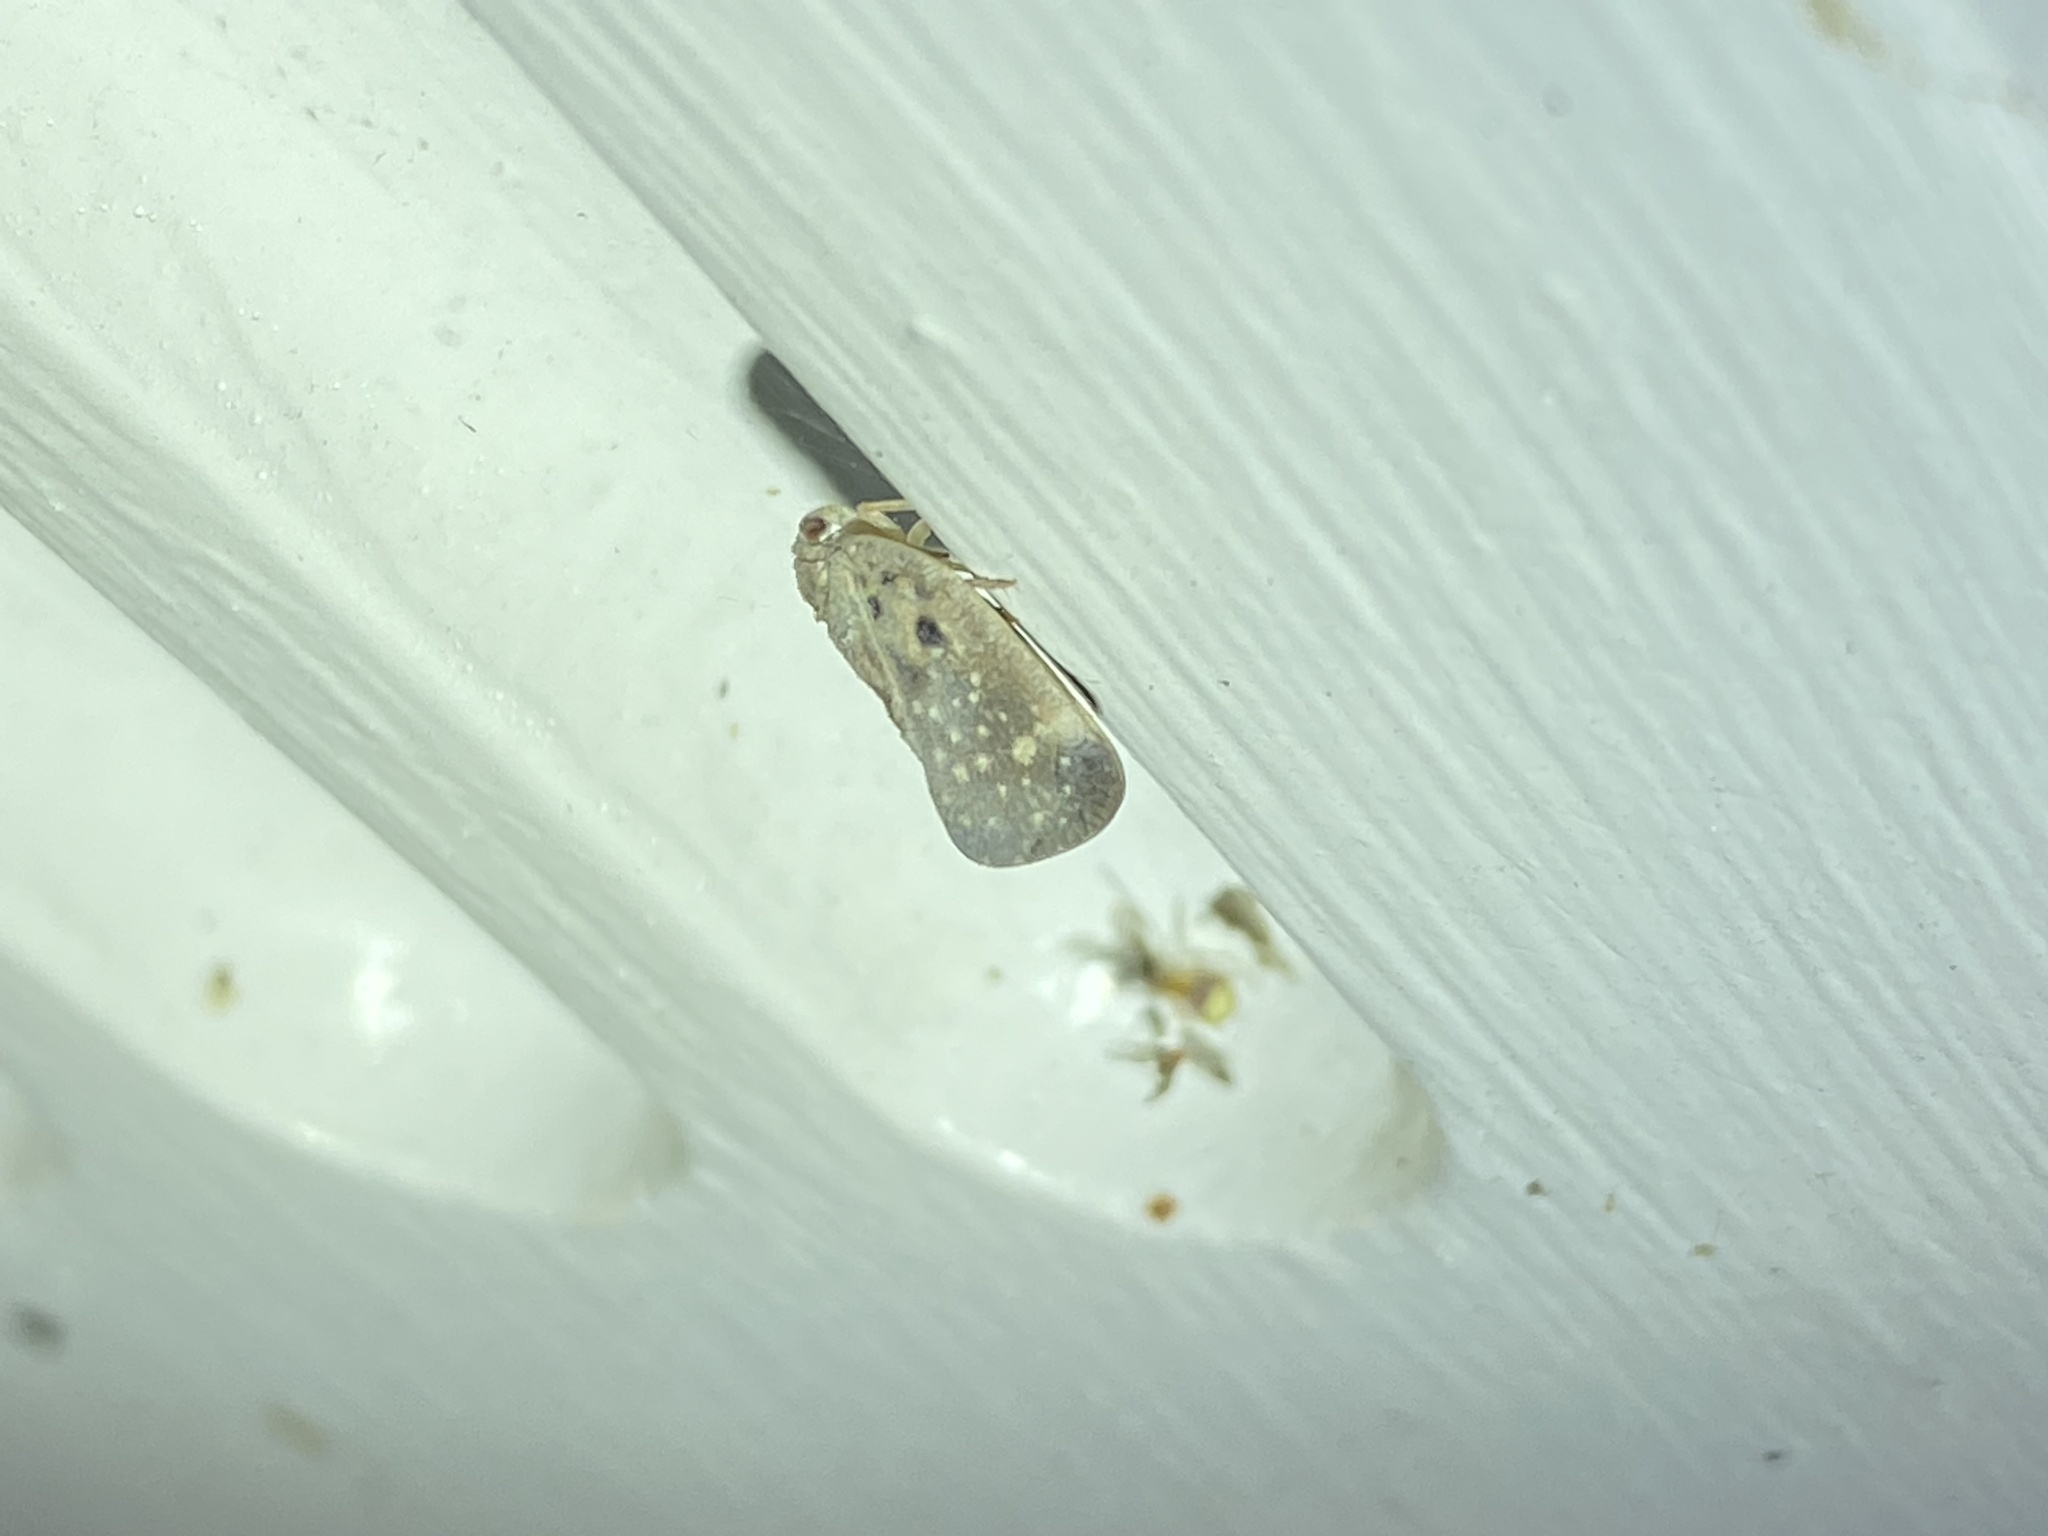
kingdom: Animalia
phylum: Arthropoda
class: Insecta
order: Hemiptera
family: Flatidae
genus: Metcalfa
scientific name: Metcalfa pruinosa
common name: Citrus flatid planthopper
